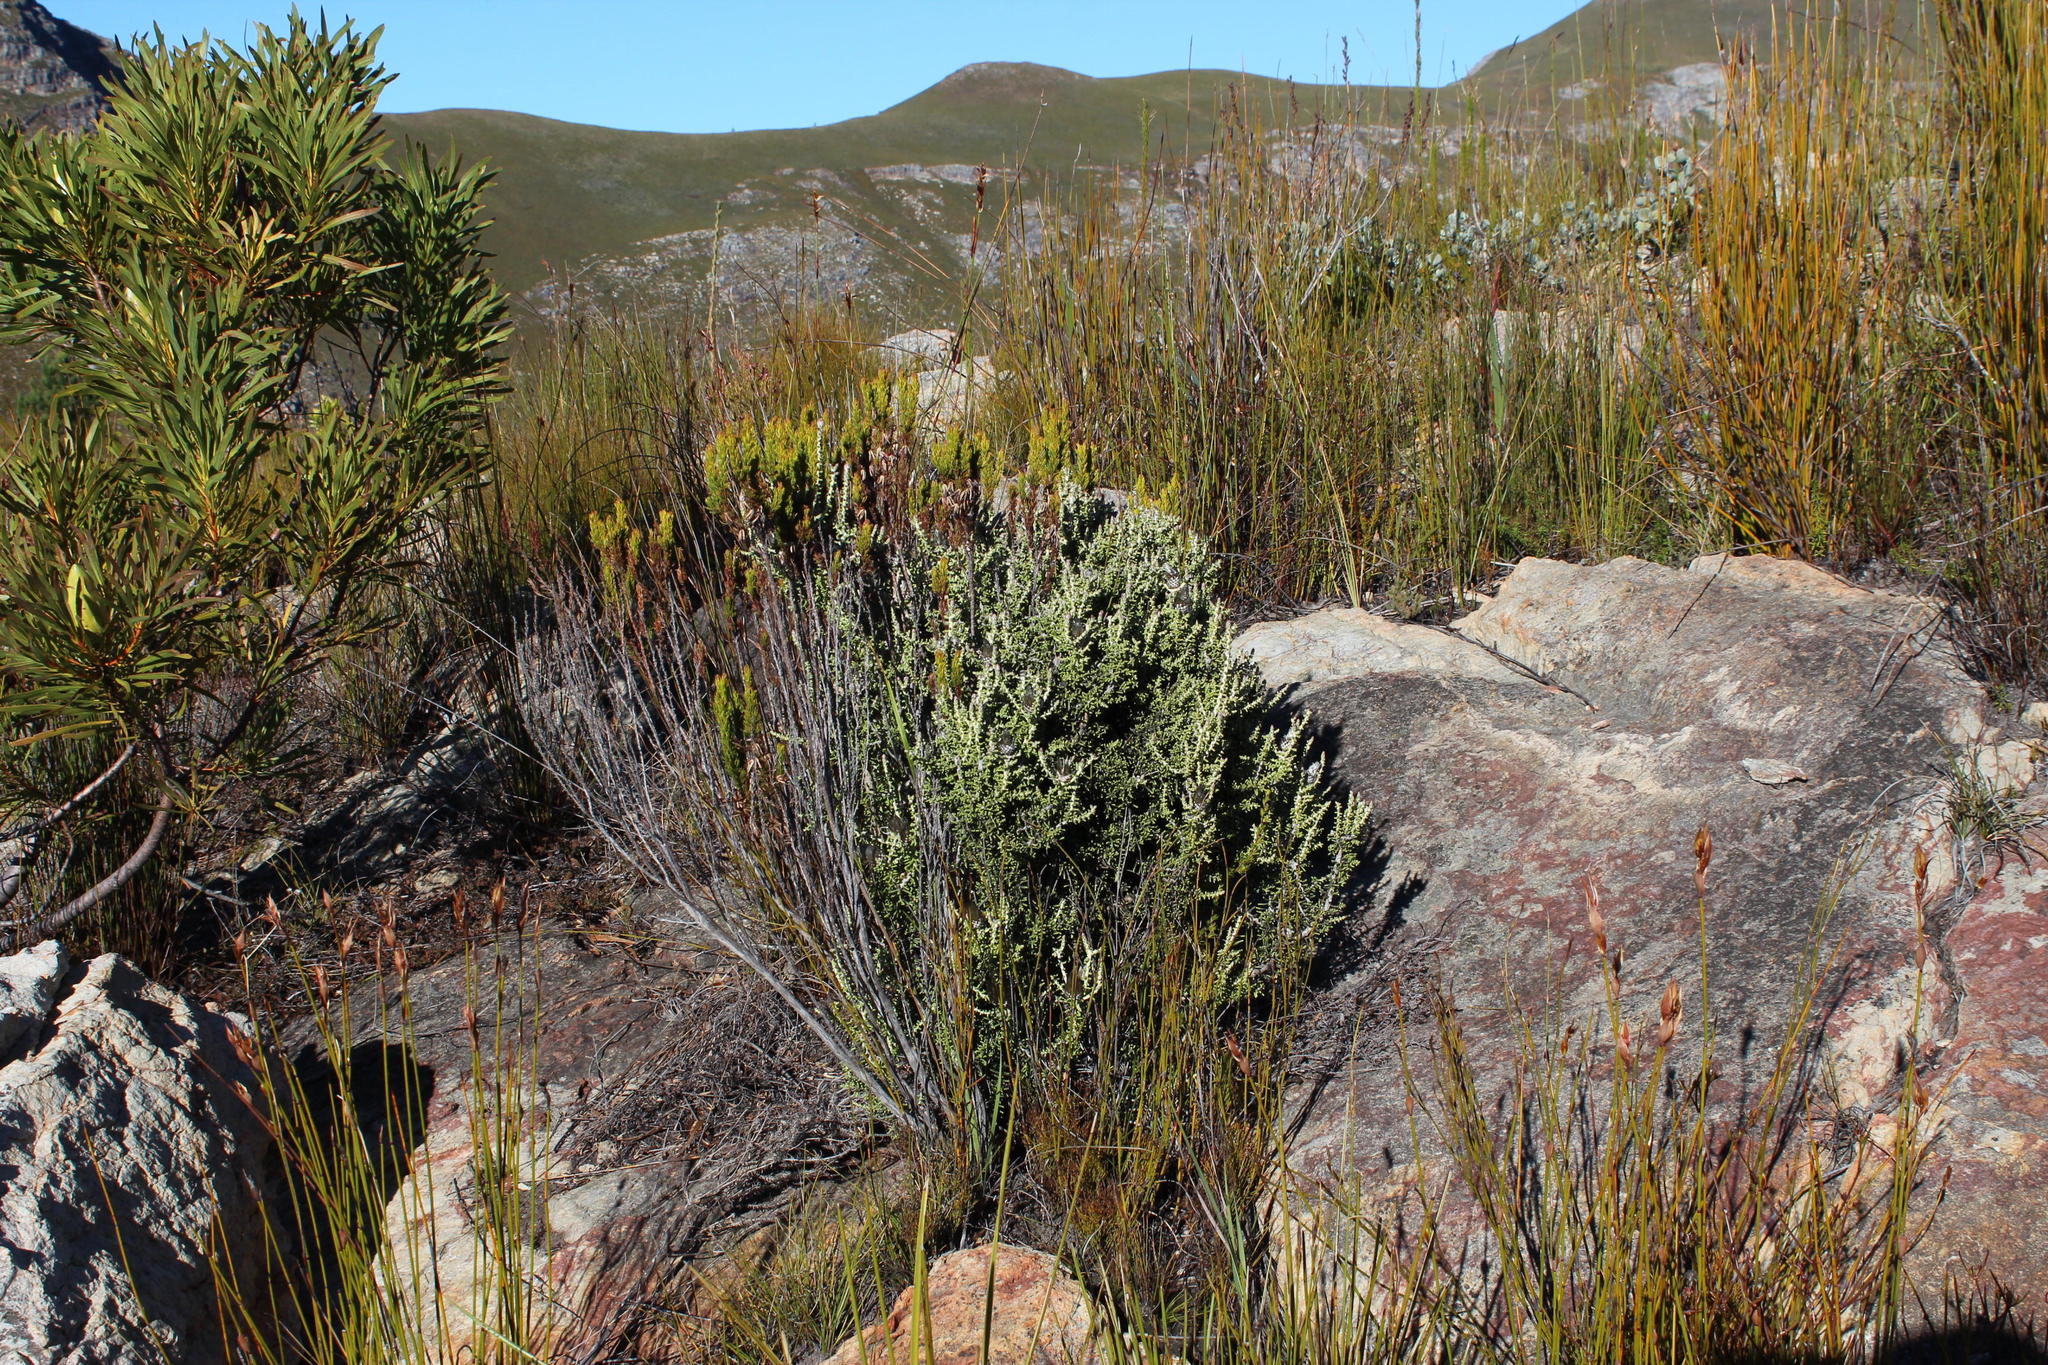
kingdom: Plantae
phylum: Tracheophyta
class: Magnoliopsida
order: Asterales
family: Asteraceae
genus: Phaenocoma
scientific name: Phaenocoma prolifera
